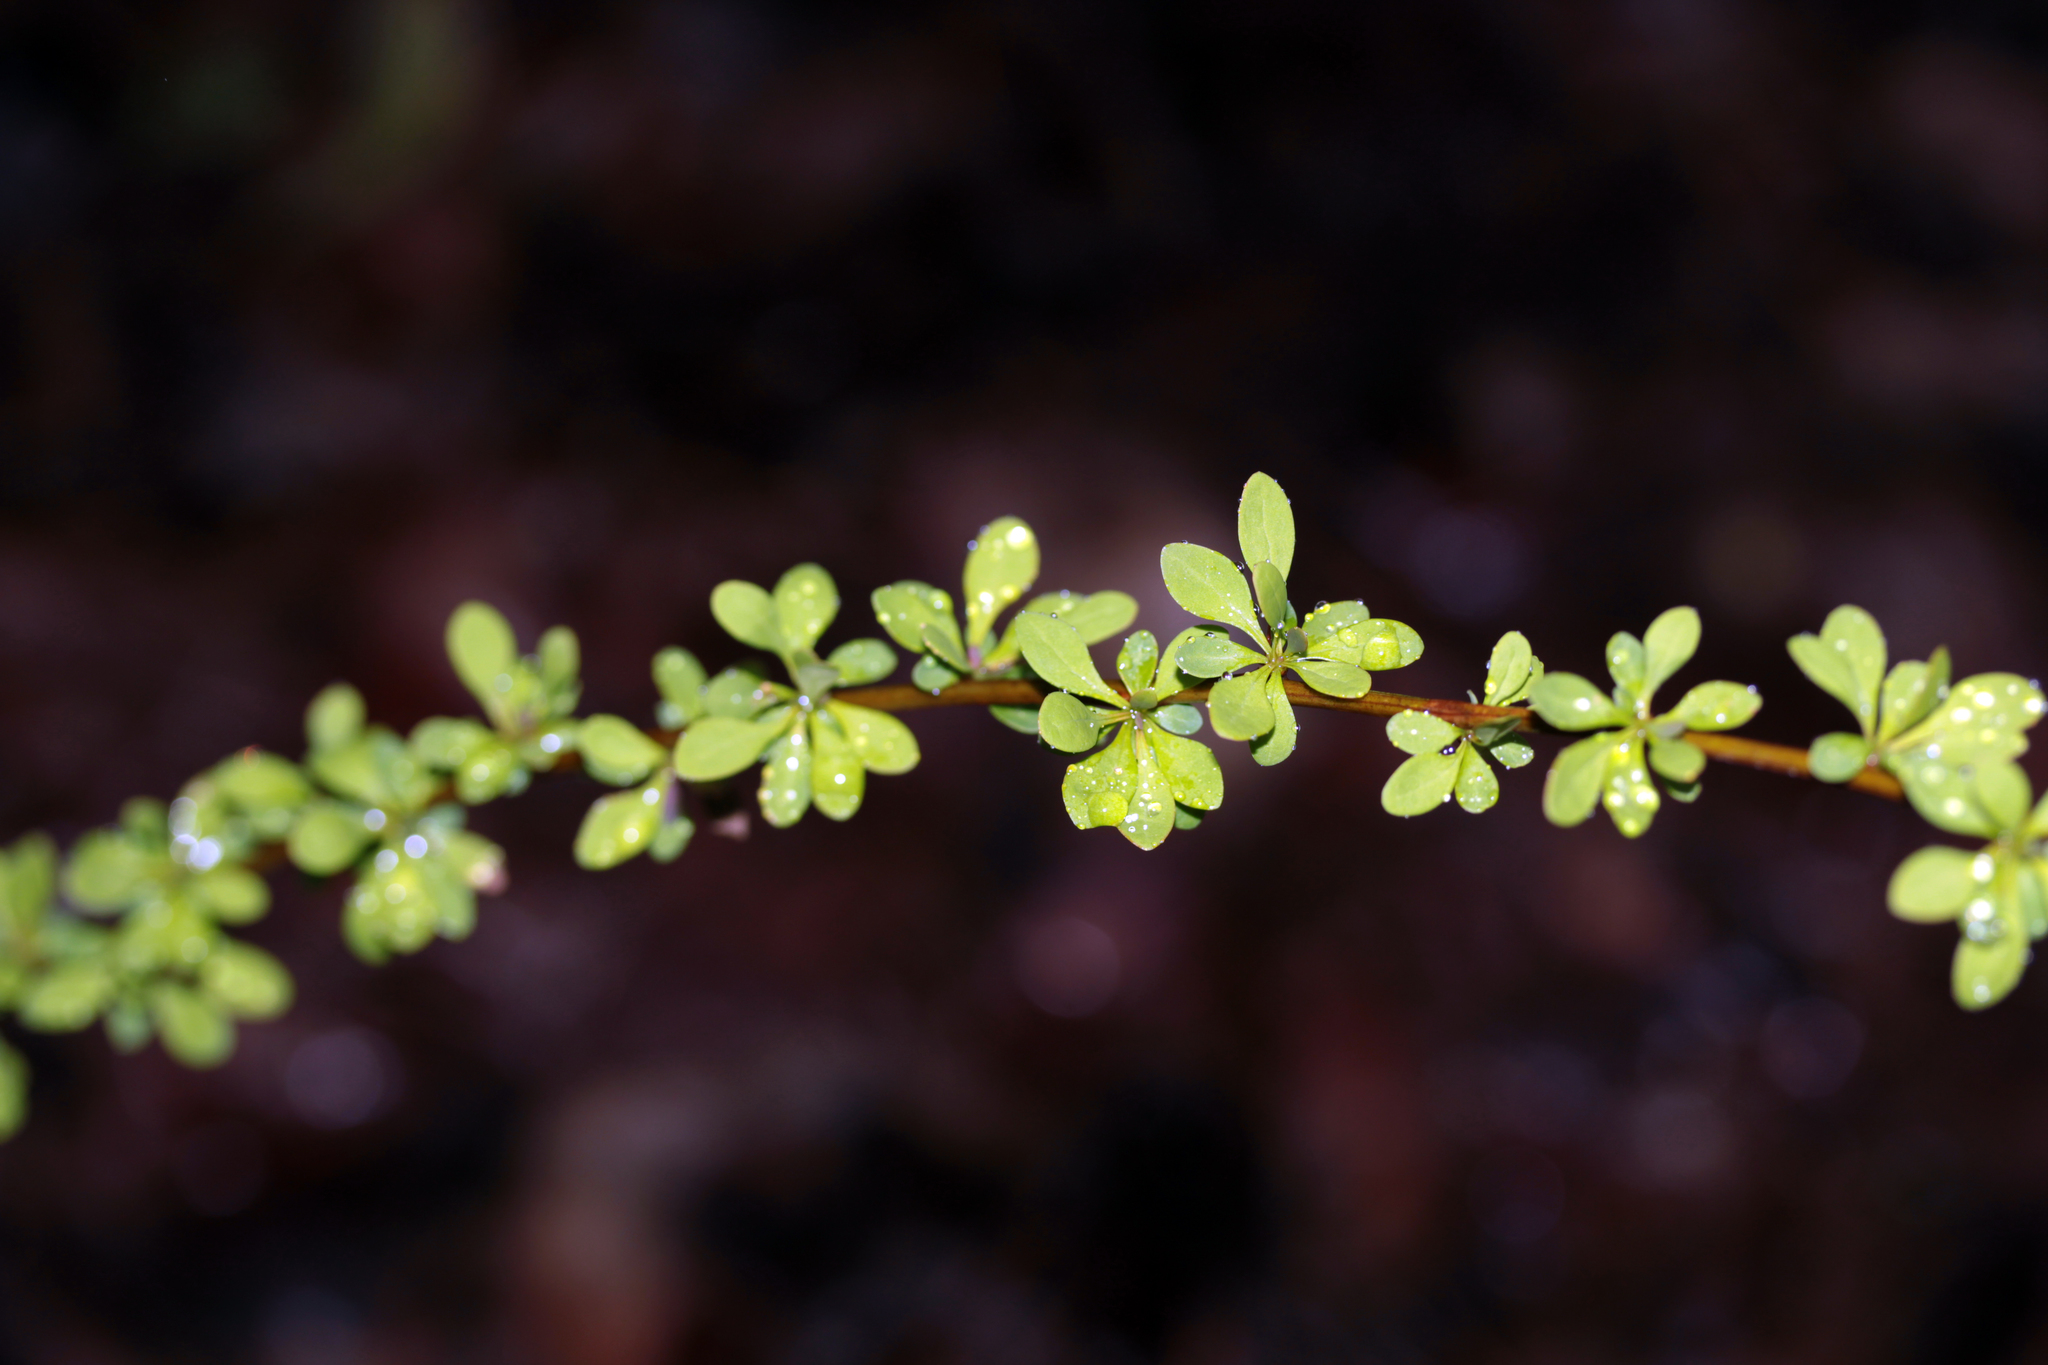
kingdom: Plantae
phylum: Tracheophyta
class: Magnoliopsida
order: Ranunculales
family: Berberidaceae
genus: Berberis
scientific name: Berberis thunbergii
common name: Japanese barberry
